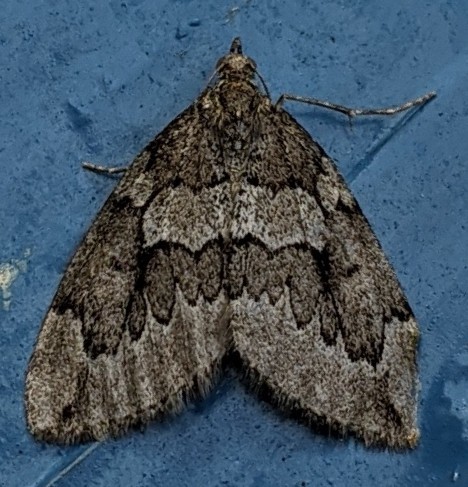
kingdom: Animalia
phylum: Arthropoda
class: Insecta
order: Lepidoptera
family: Geometridae
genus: Thera
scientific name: Thera juniperata
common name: Juniper carpet
